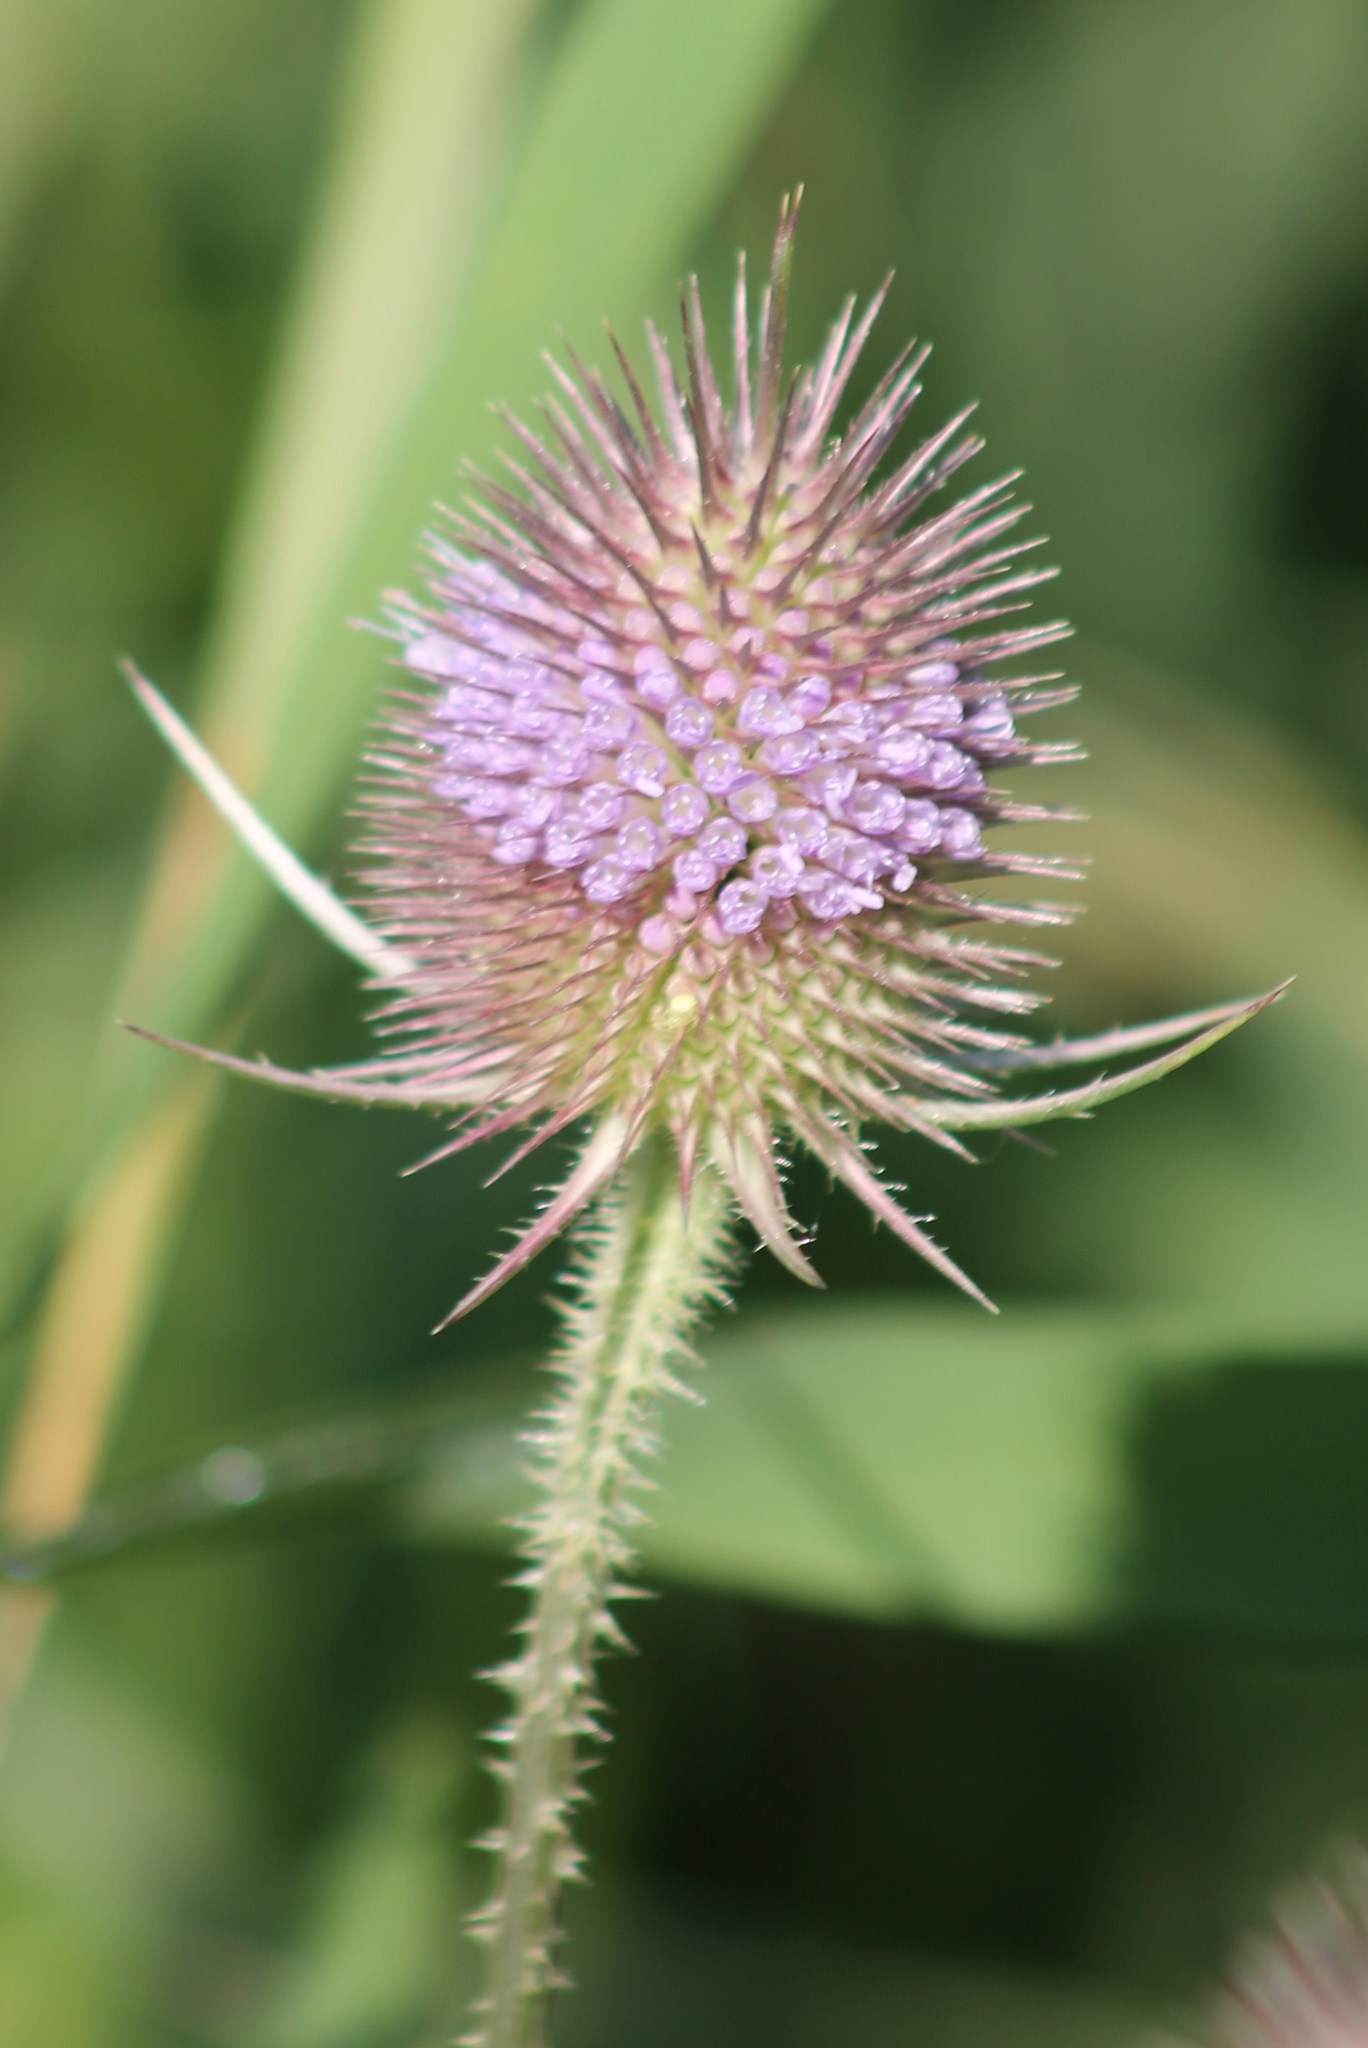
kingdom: Plantae
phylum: Tracheophyta
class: Magnoliopsida
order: Dipsacales
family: Caprifoliaceae
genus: Dipsacus
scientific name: Dipsacus fullonum
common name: Teasel
